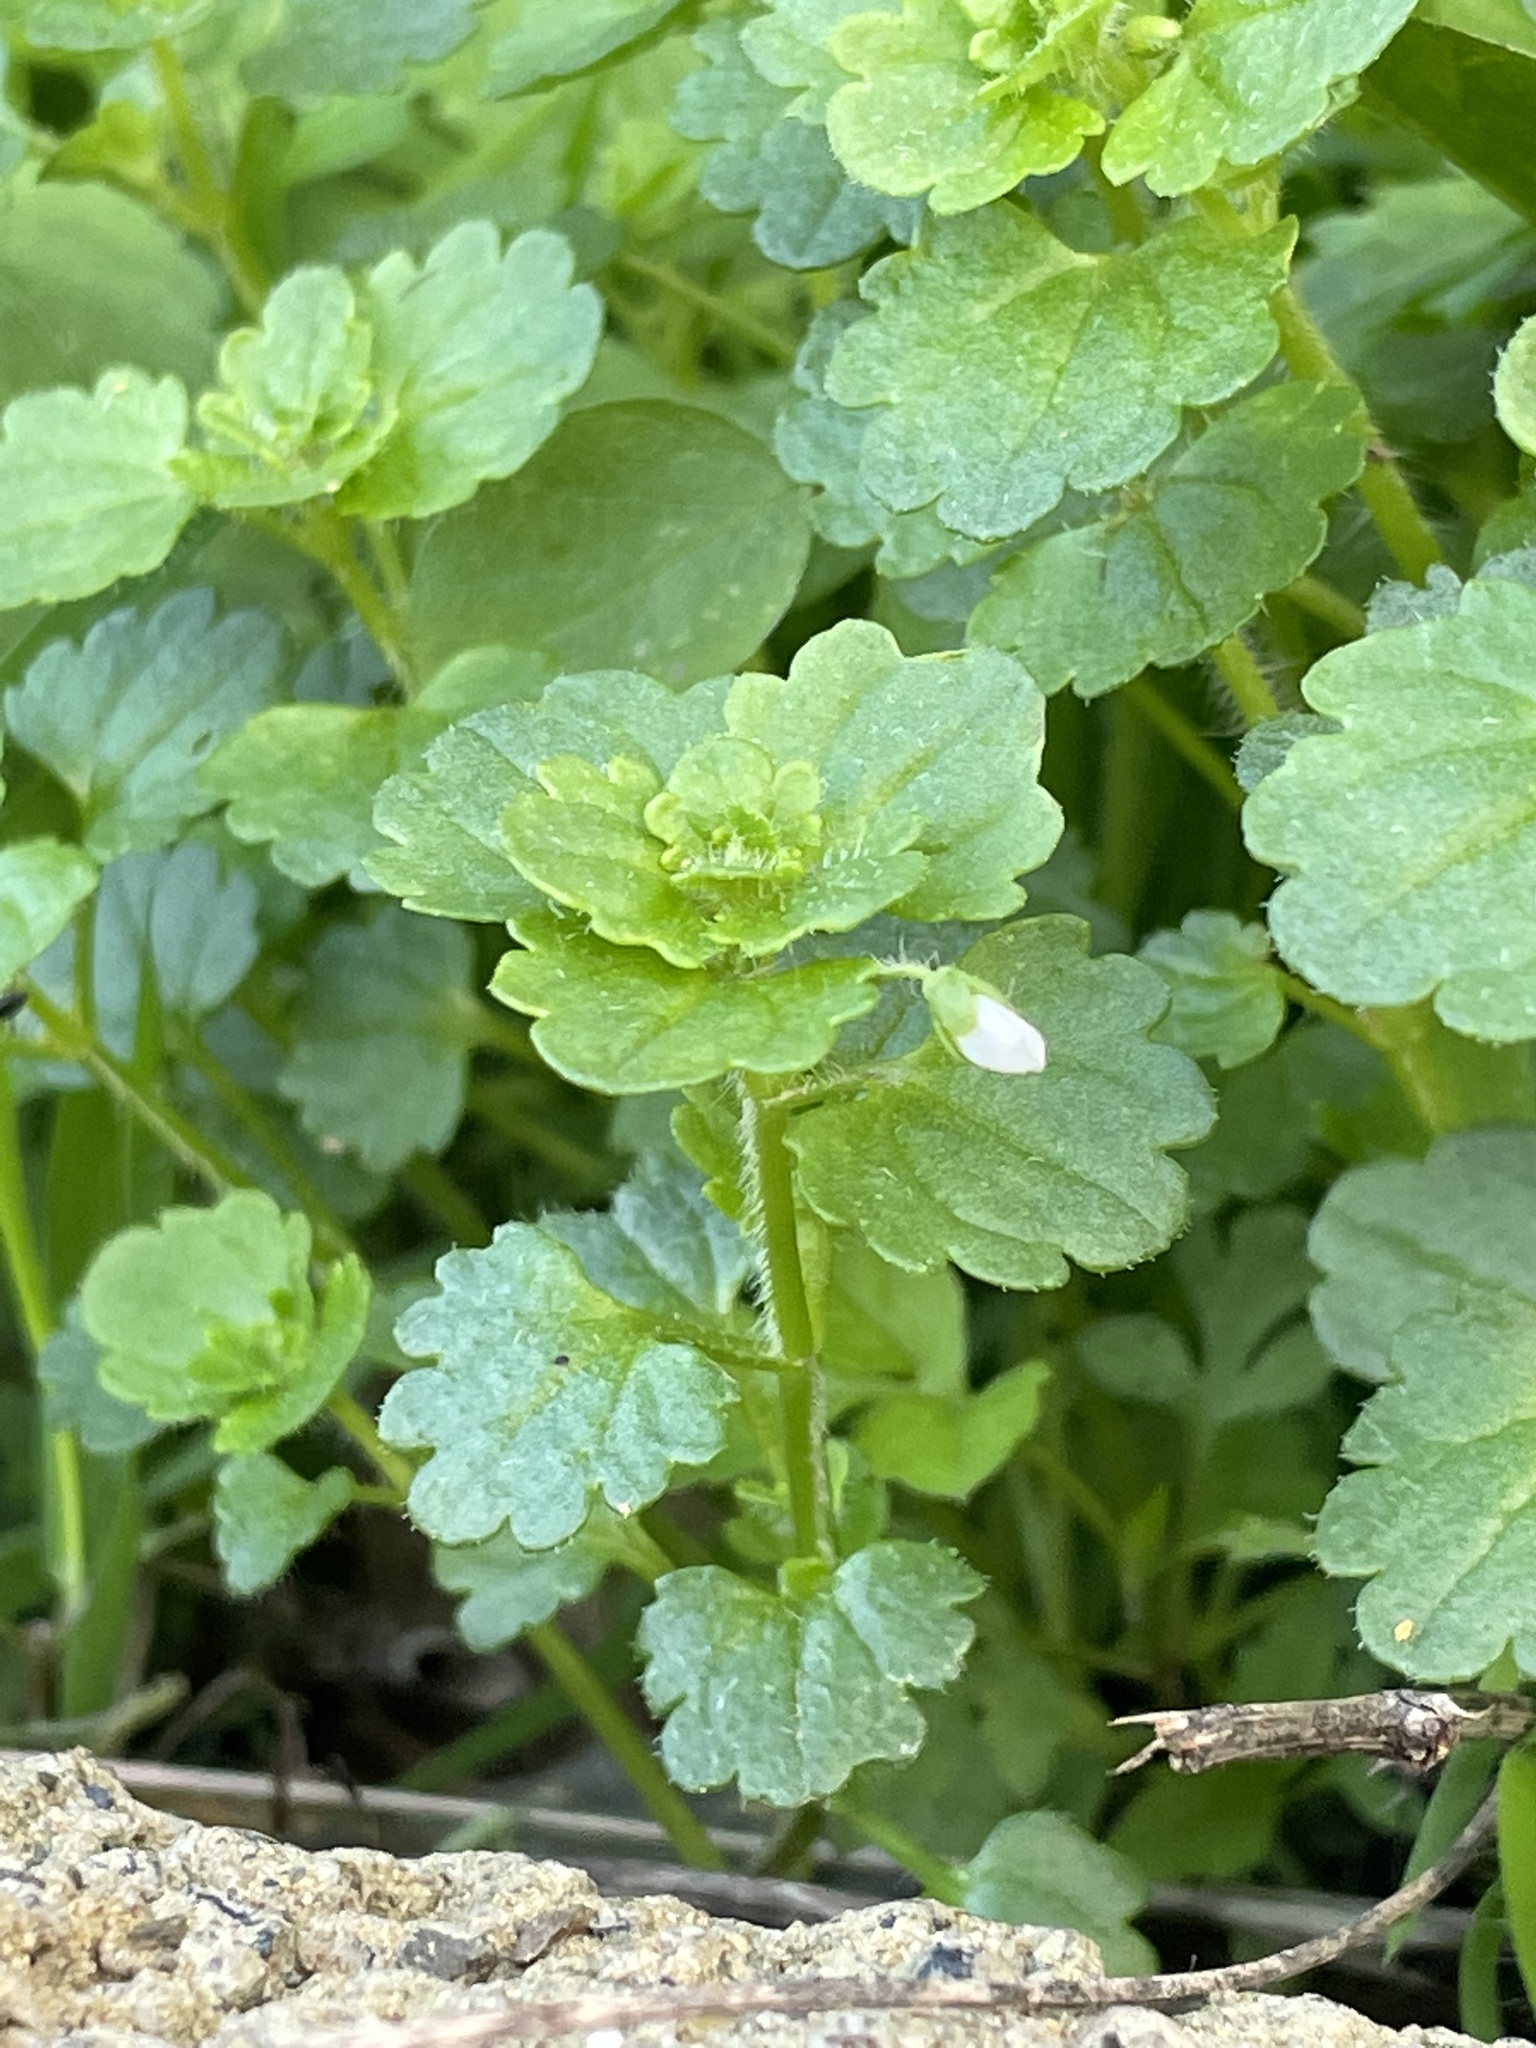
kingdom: Plantae
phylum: Tracheophyta
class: Magnoliopsida
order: Lamiales
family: Plantaginaceae
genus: Veronica
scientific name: Veronica cymbalaria
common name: Pale speedwell
